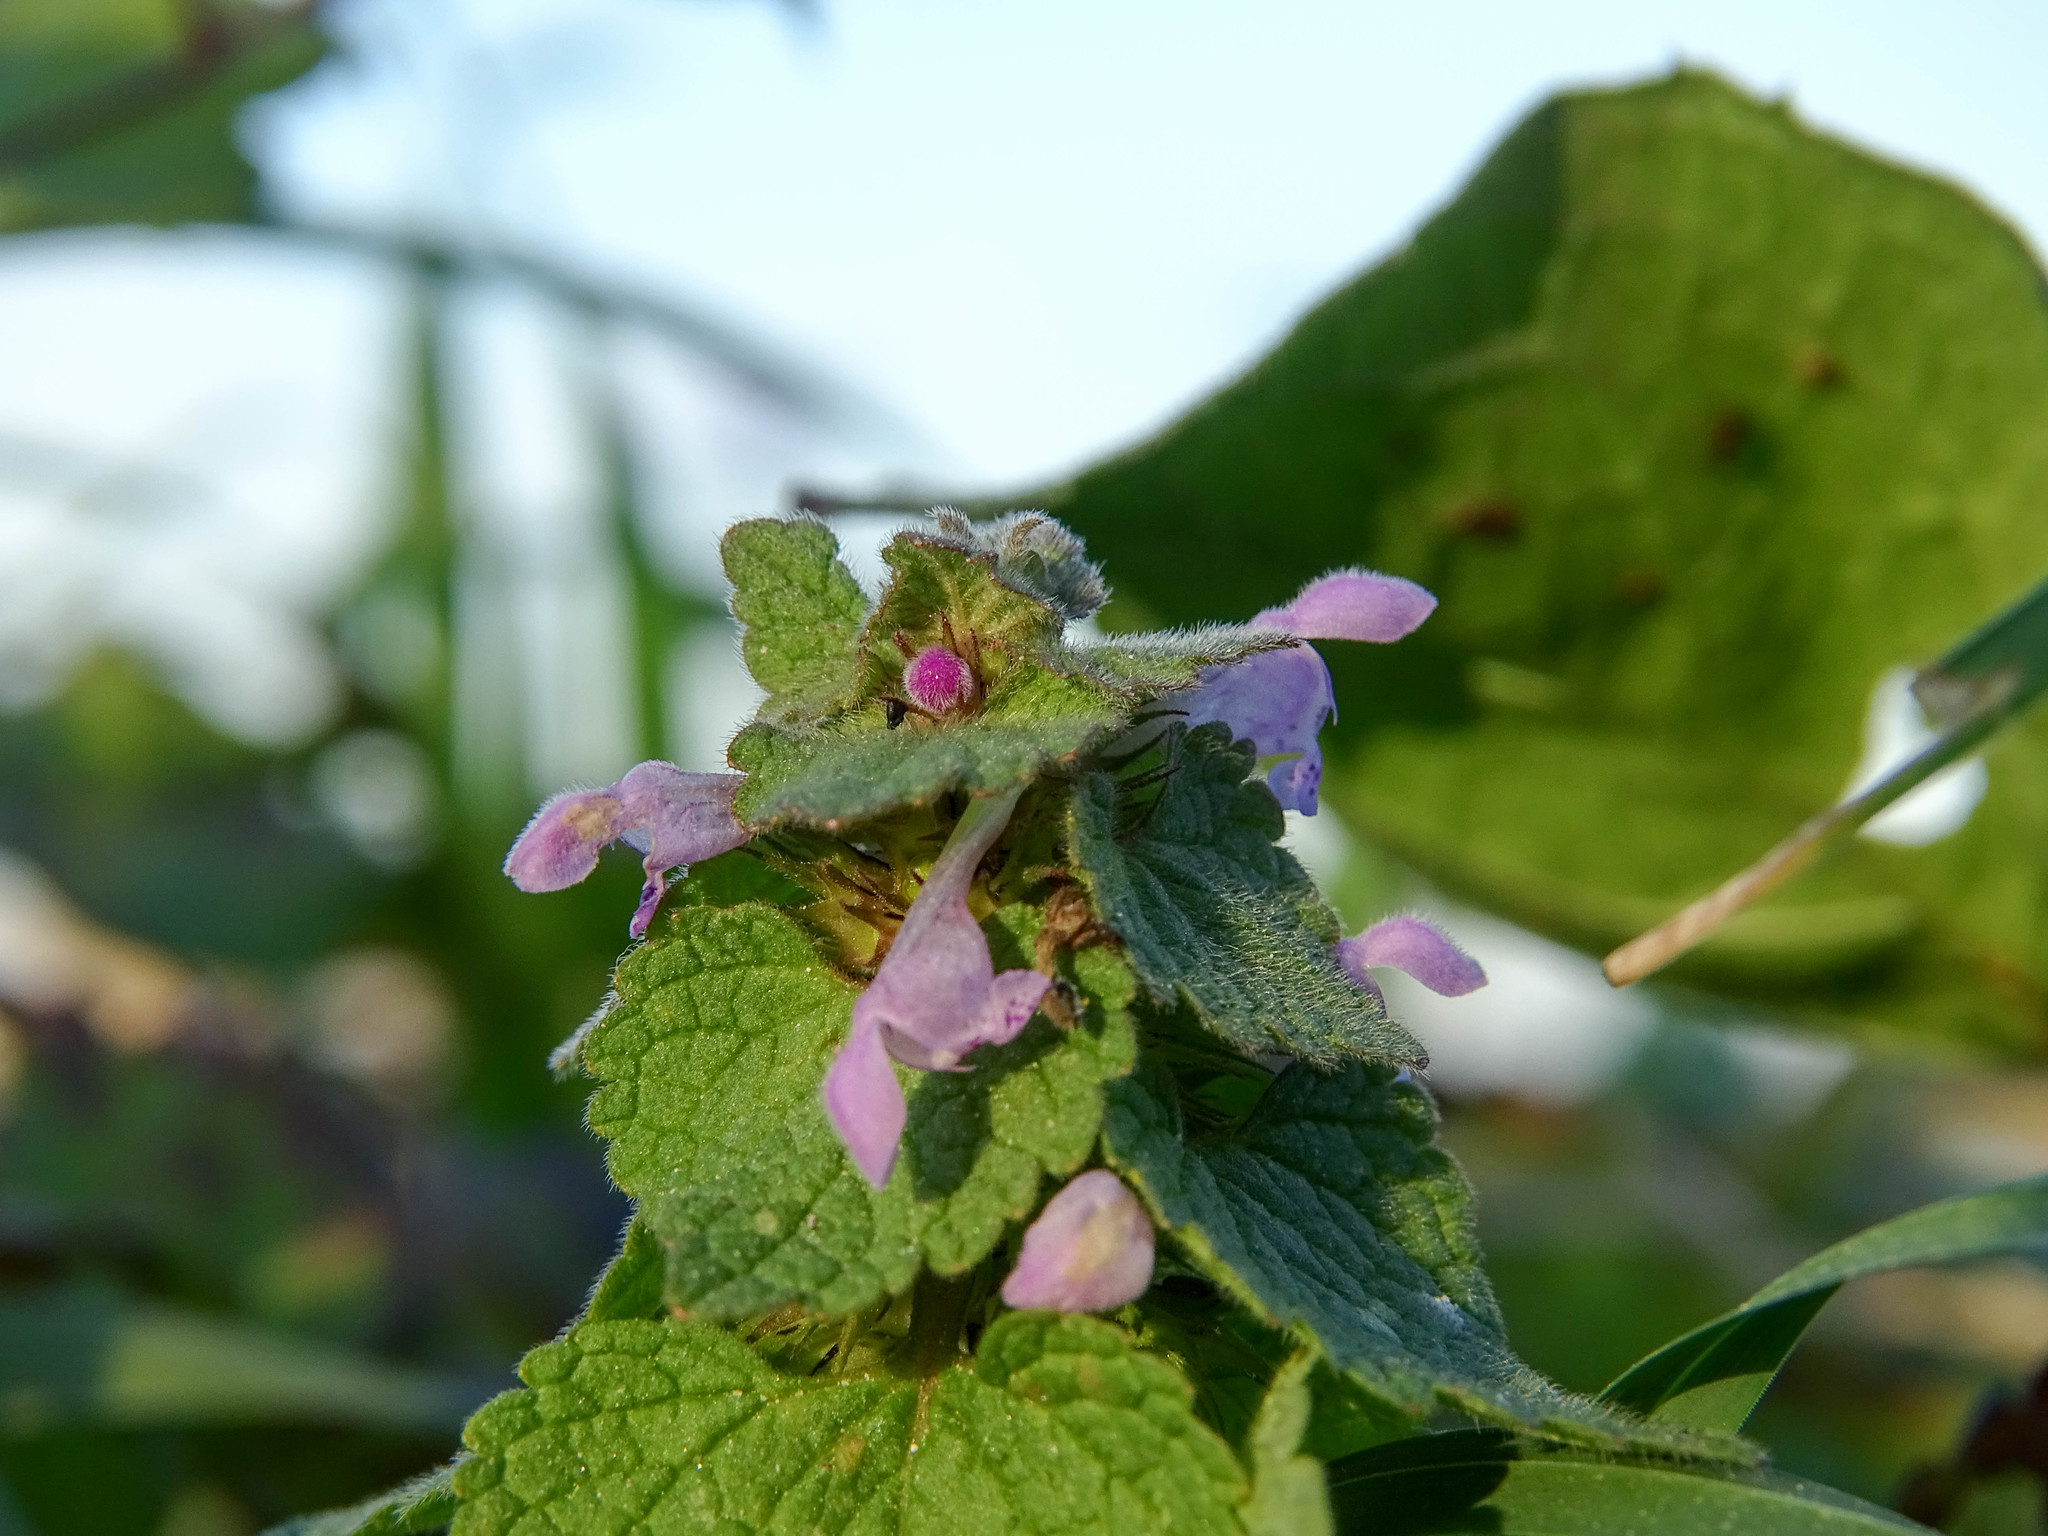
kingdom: Plantae
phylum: Tracheophyta
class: Magnoliopsida
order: Lamiales
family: Lamiaceae
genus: Lamium
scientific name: Lamium purpureum
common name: Red dead-nettle
